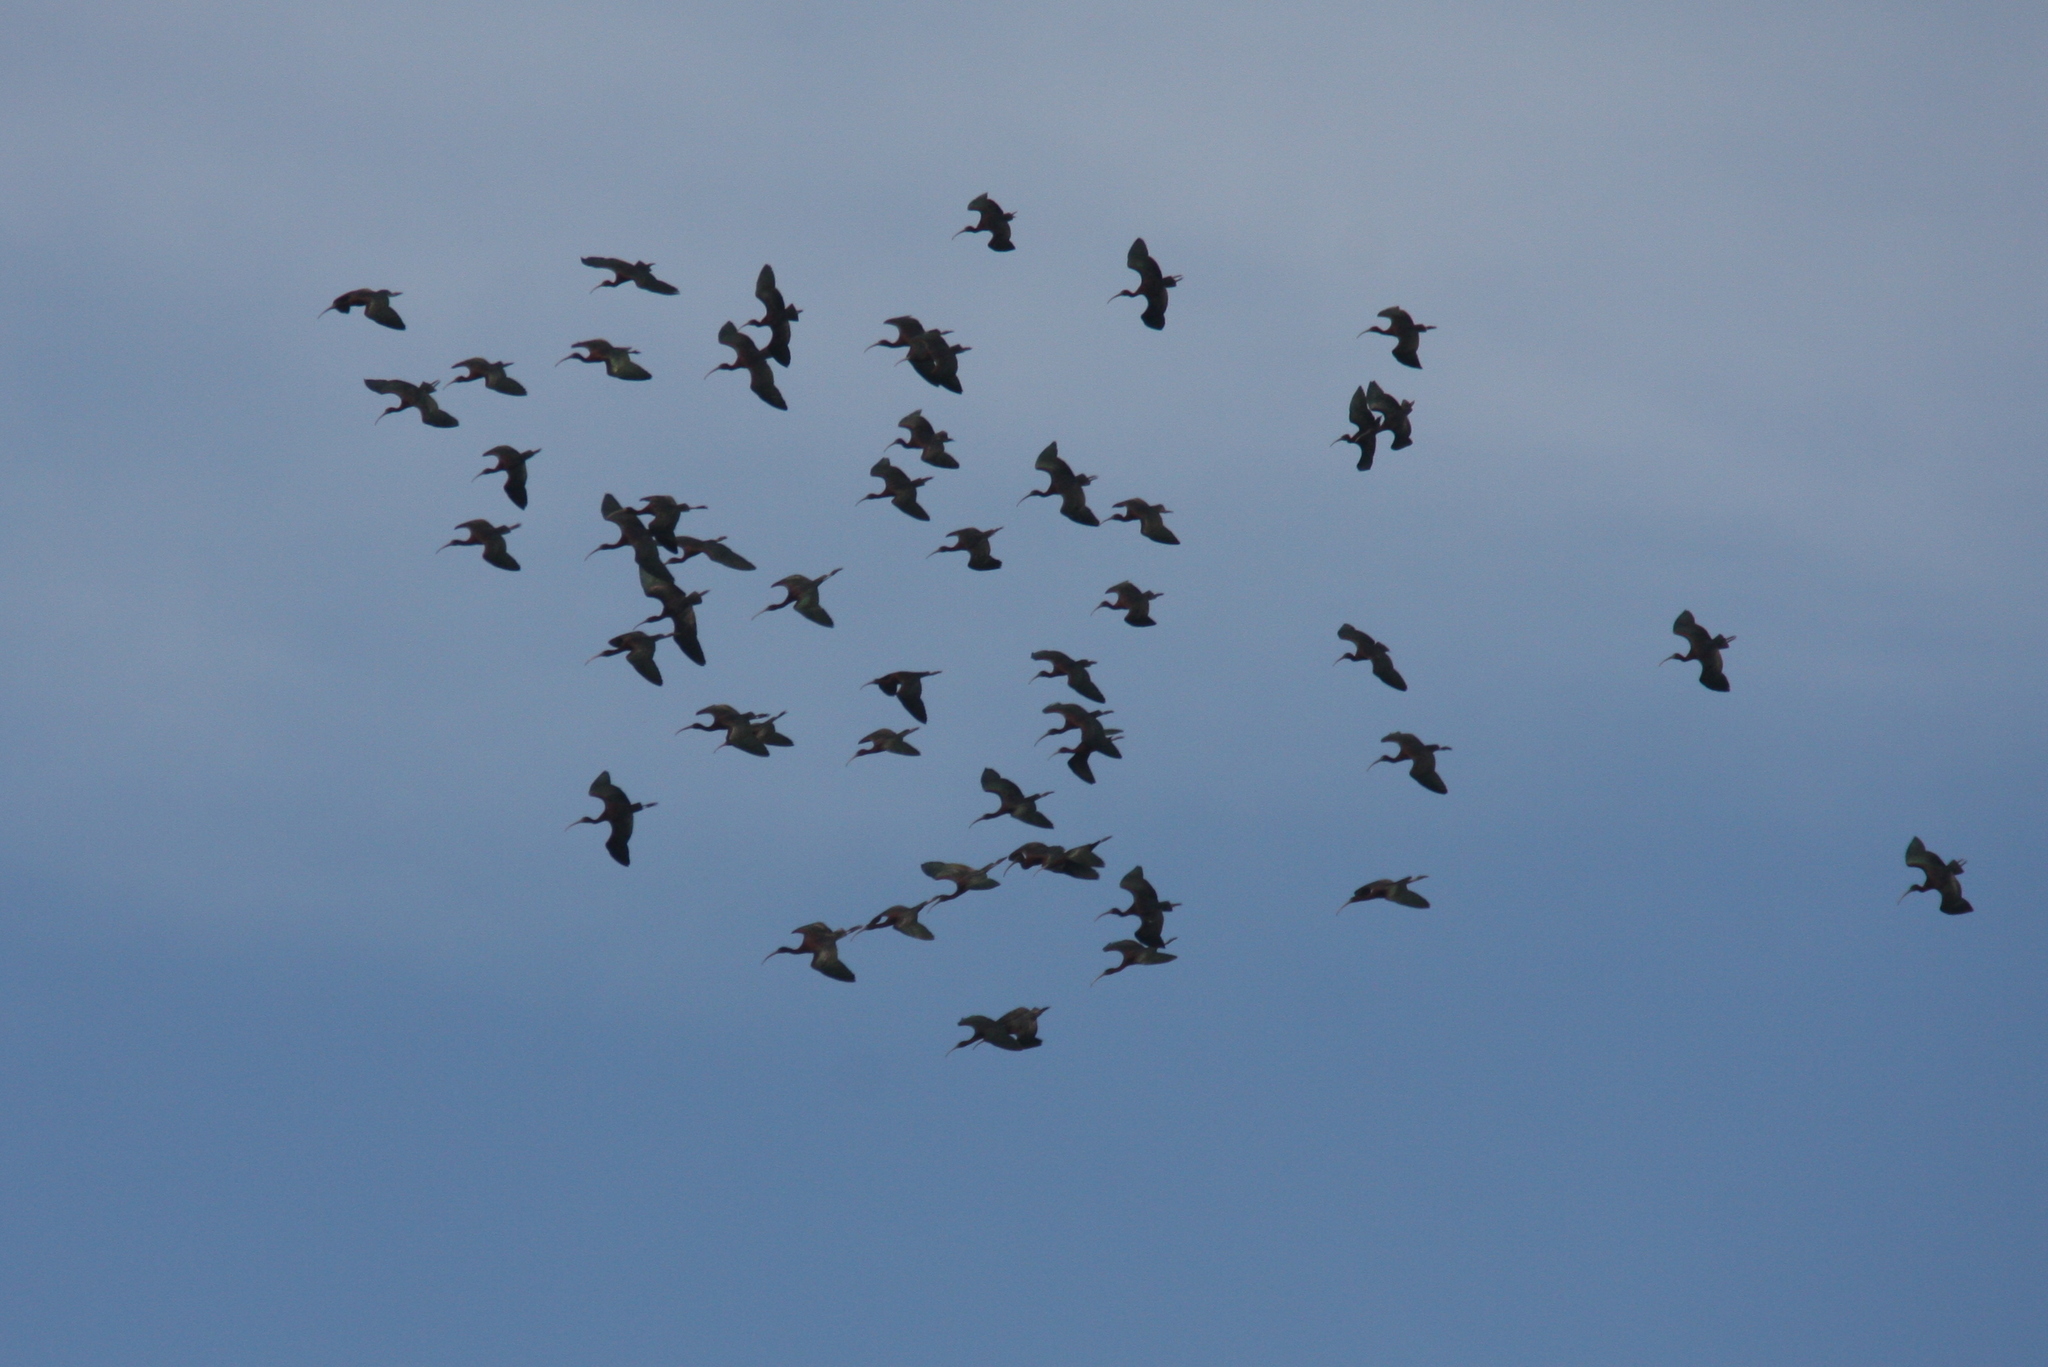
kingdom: Animalia
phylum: Chordata
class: Aves
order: Pelecaniformes
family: Threskiornithidae
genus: Plegadis
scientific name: Plegadis falcinellus
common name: Glossy ibis
